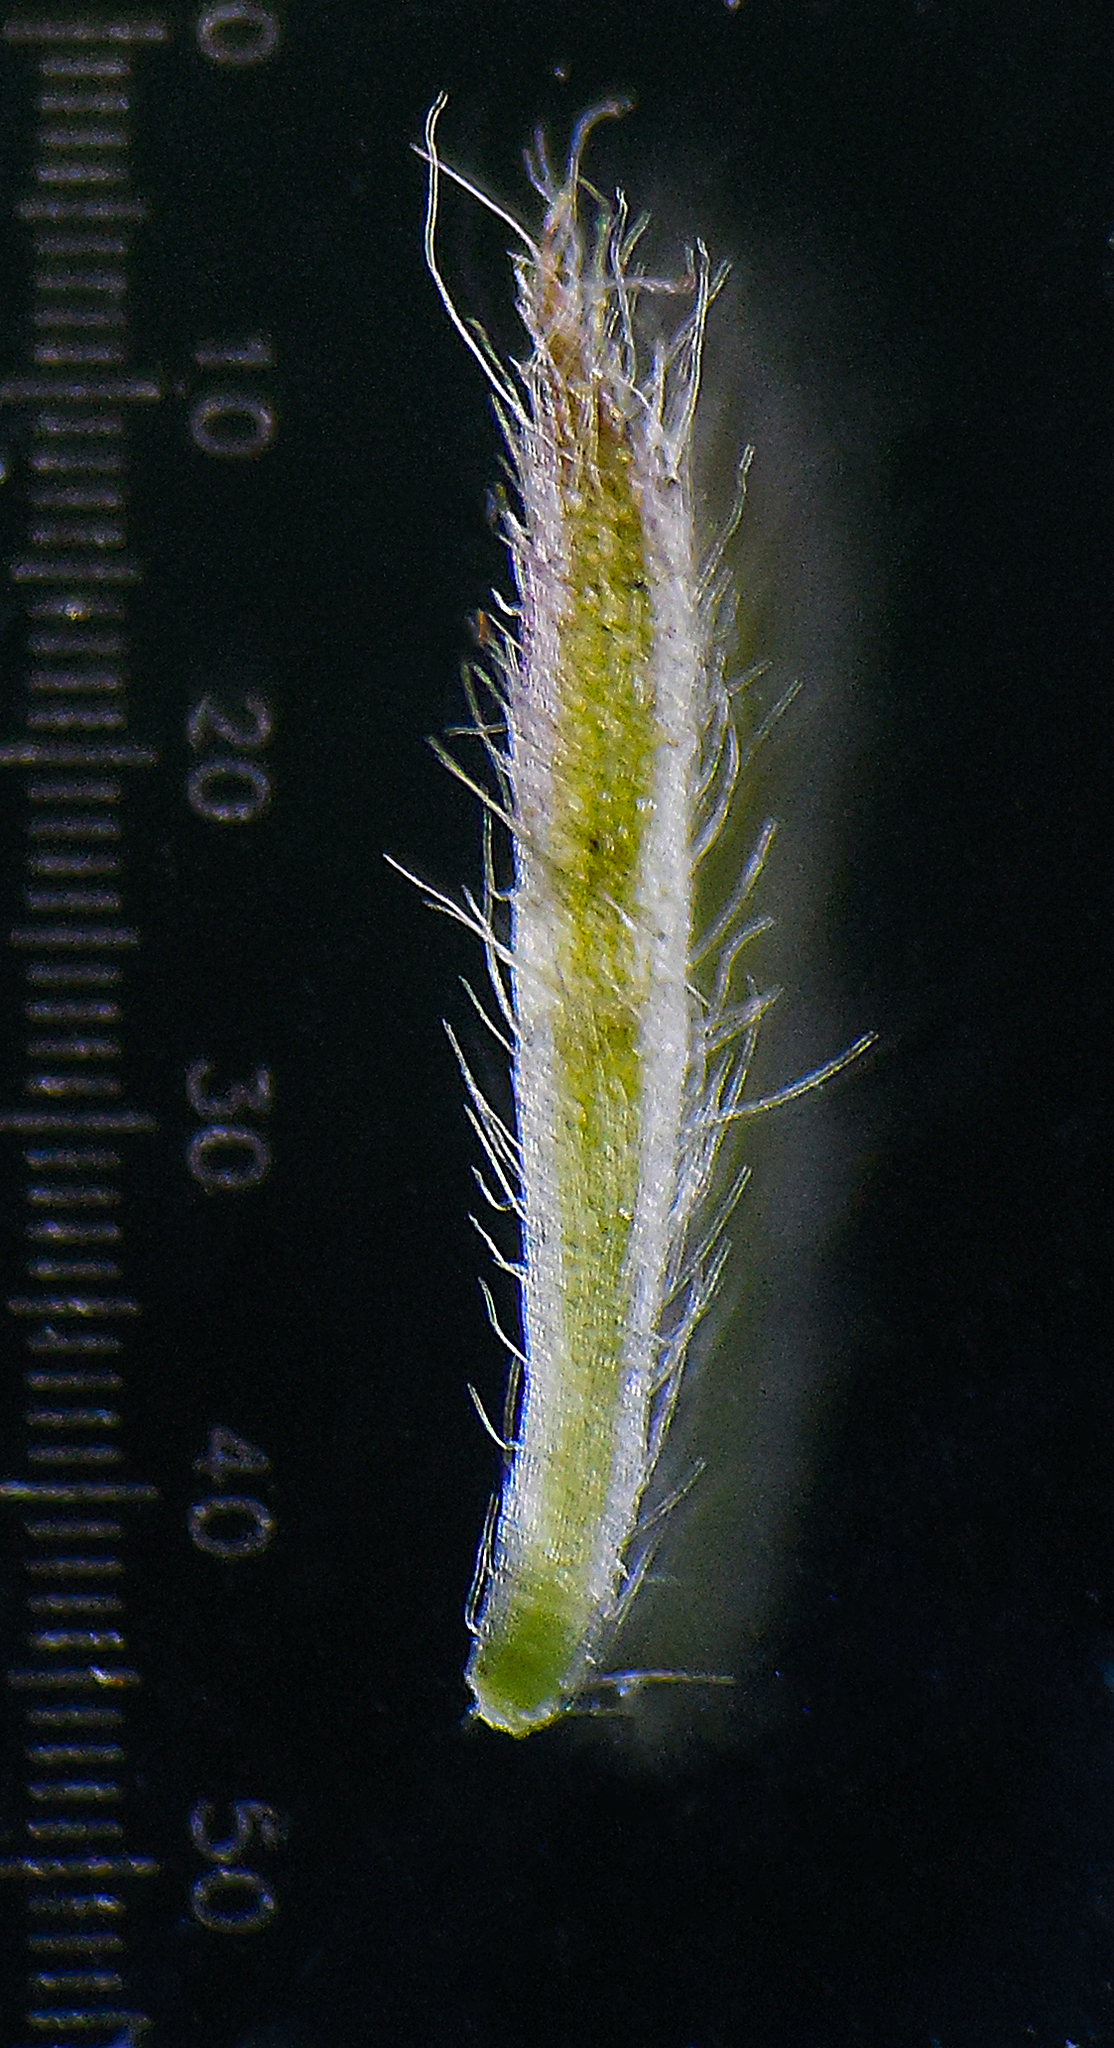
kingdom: Plantae
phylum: Tracheophyta
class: Magnoliopsida
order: Asterales
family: Asteraceae
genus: Blumea
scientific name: Blumea oxyodonta
